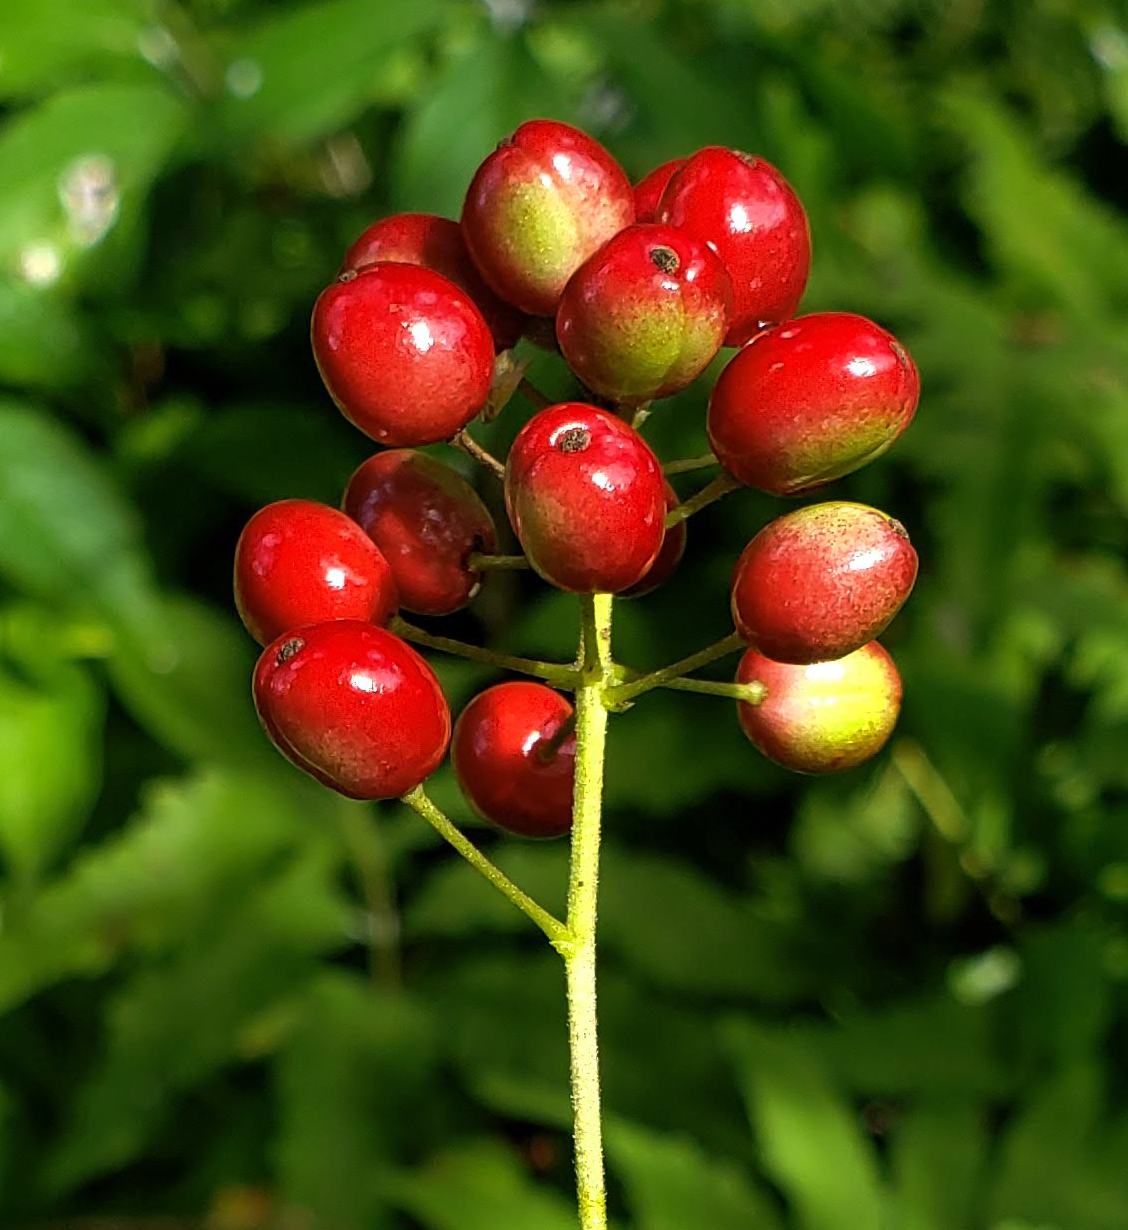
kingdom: Plantae
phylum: Tracheophyta
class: Magnoliopsida
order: Ranunculales
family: Ranunculaceae
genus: Actaea
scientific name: Actaea rubra
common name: Red baneberry
